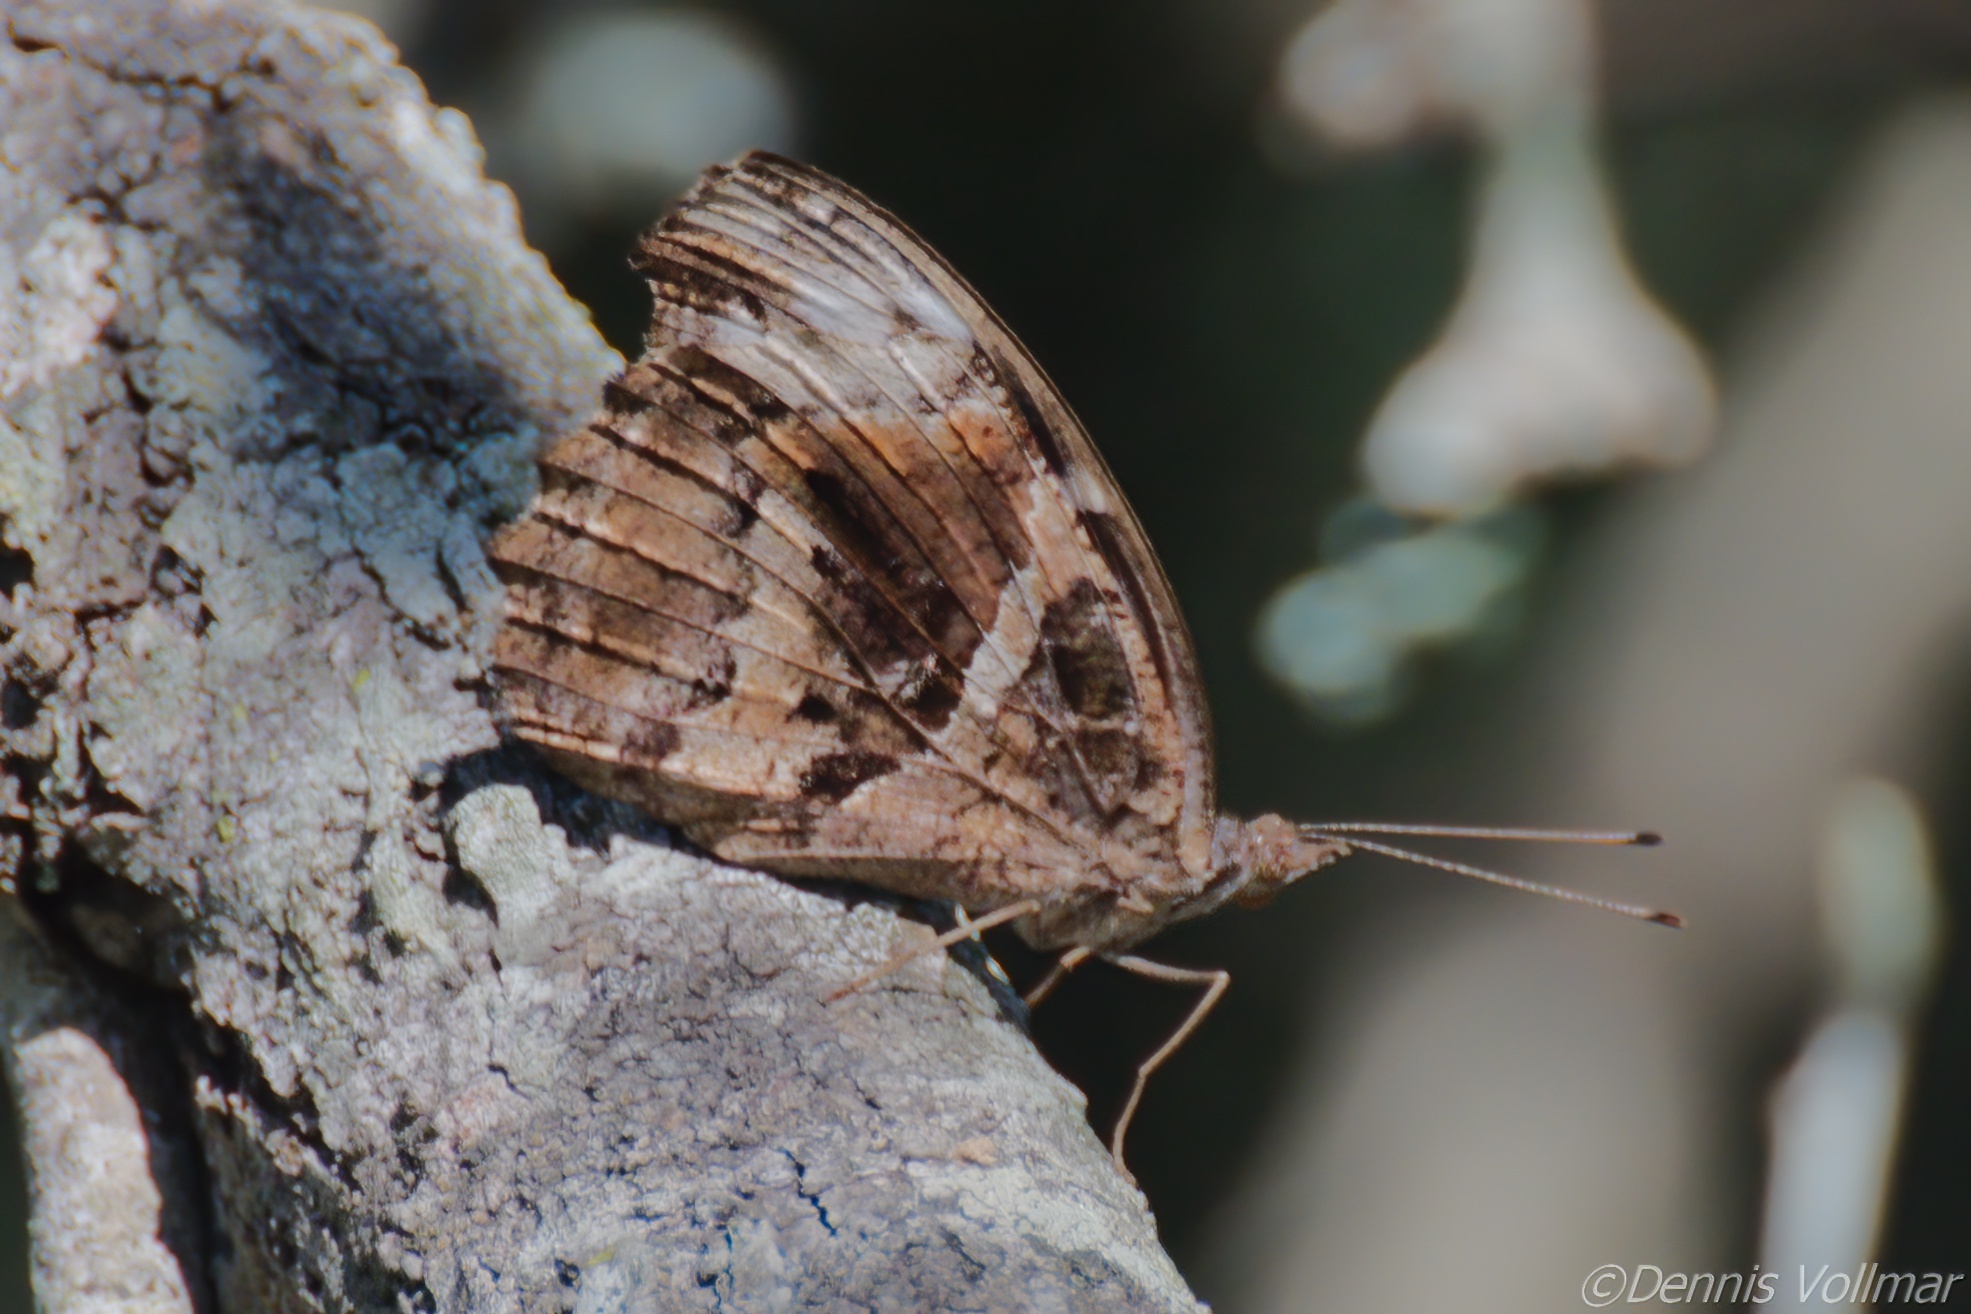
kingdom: Animalia
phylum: Arthropoda
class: Insecta
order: Lepidoptera
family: Nymphalidae
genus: Myscelia
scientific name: Myscelia ethusa
